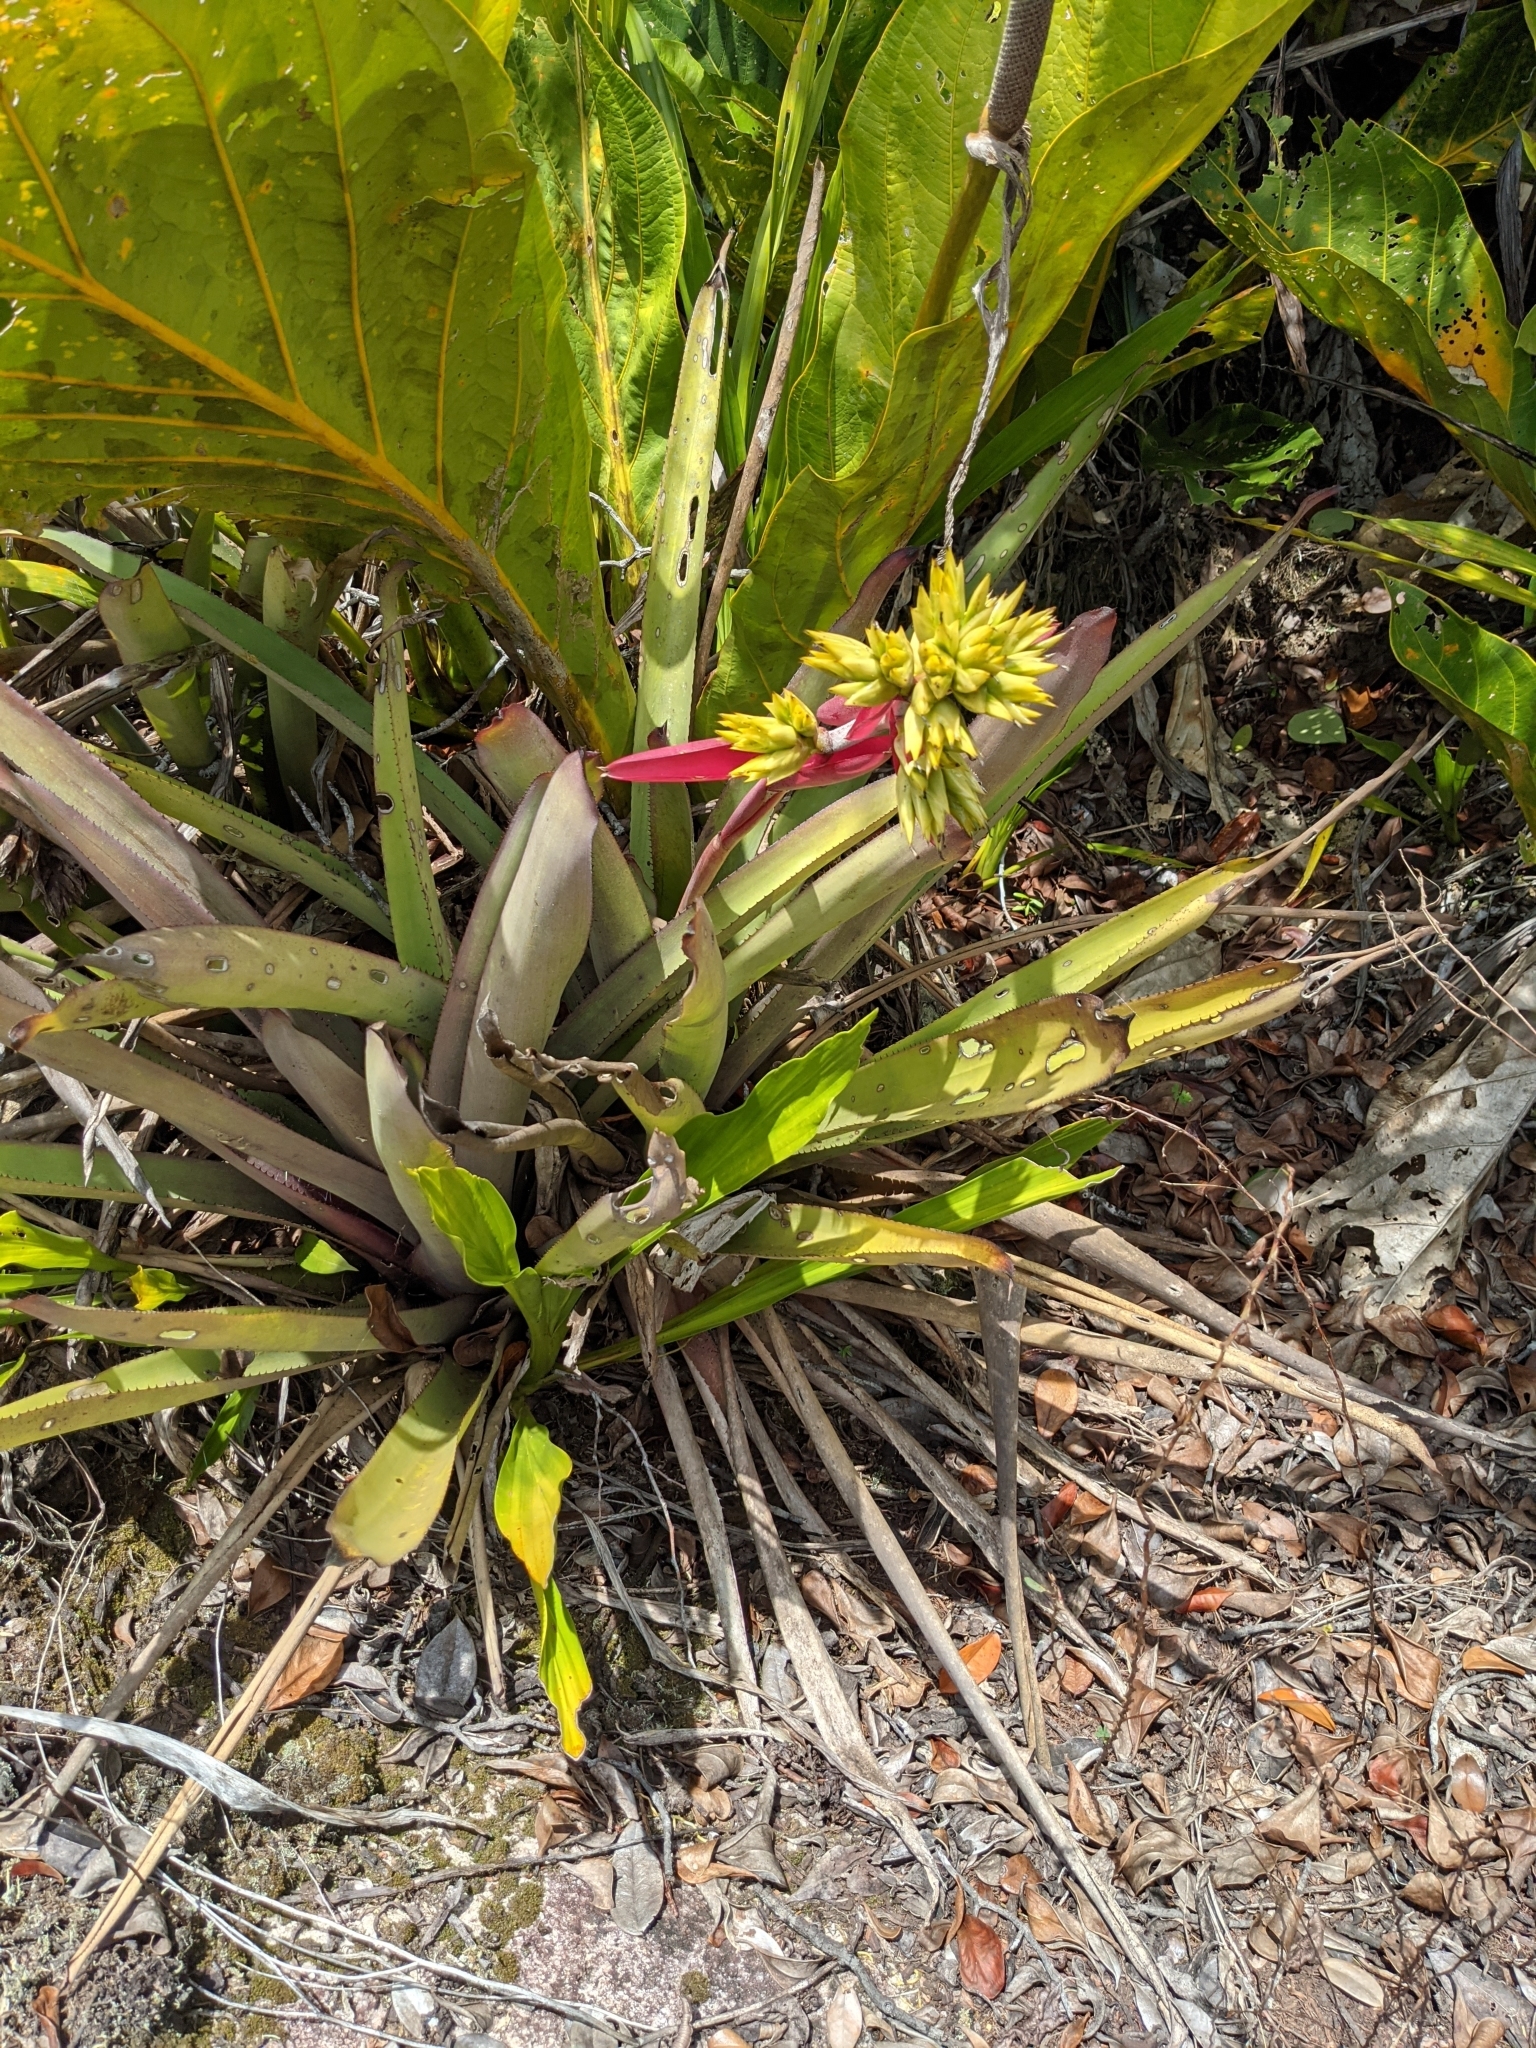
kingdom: Plantae
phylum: Tracheophyta
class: Liliopsida
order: Poales
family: Bromeliaceae
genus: Aechmea
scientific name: Aechmea aquilega
